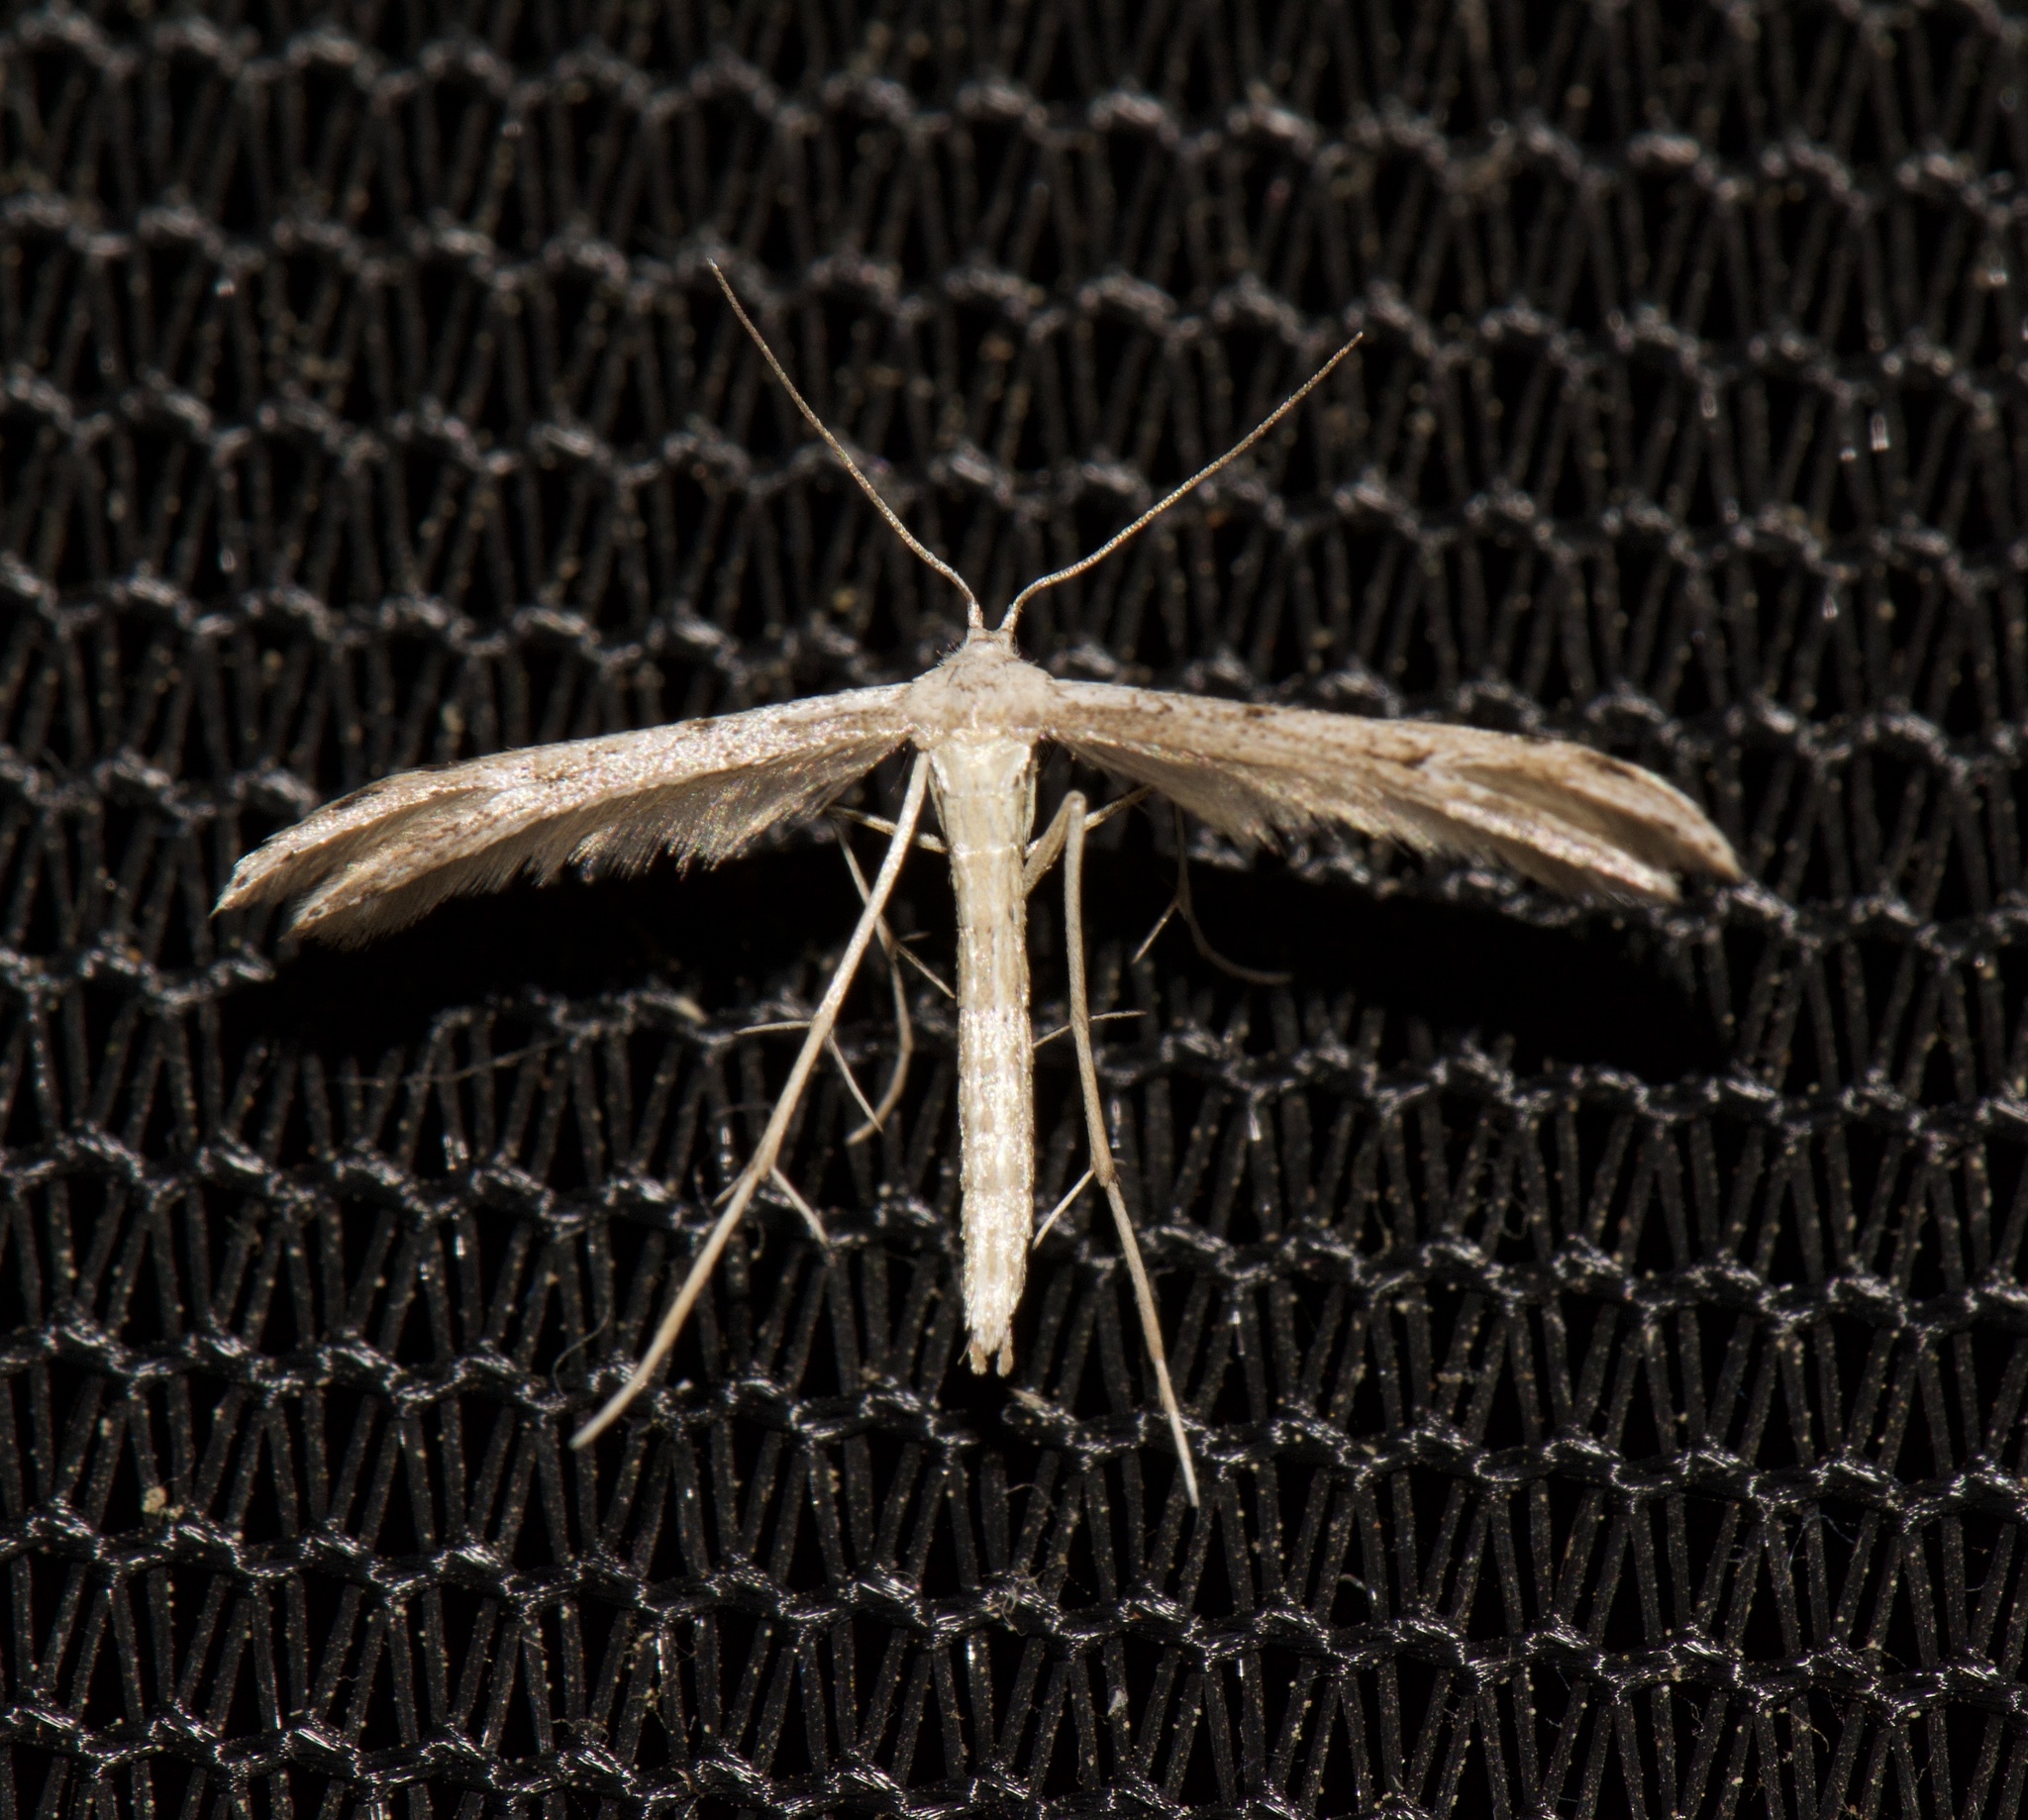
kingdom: Animalia
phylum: Arthropoda
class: Insecta
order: Lepidoptera
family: Pterophoridae
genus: Pselnophorus
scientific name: Pselnophorus belfragei
